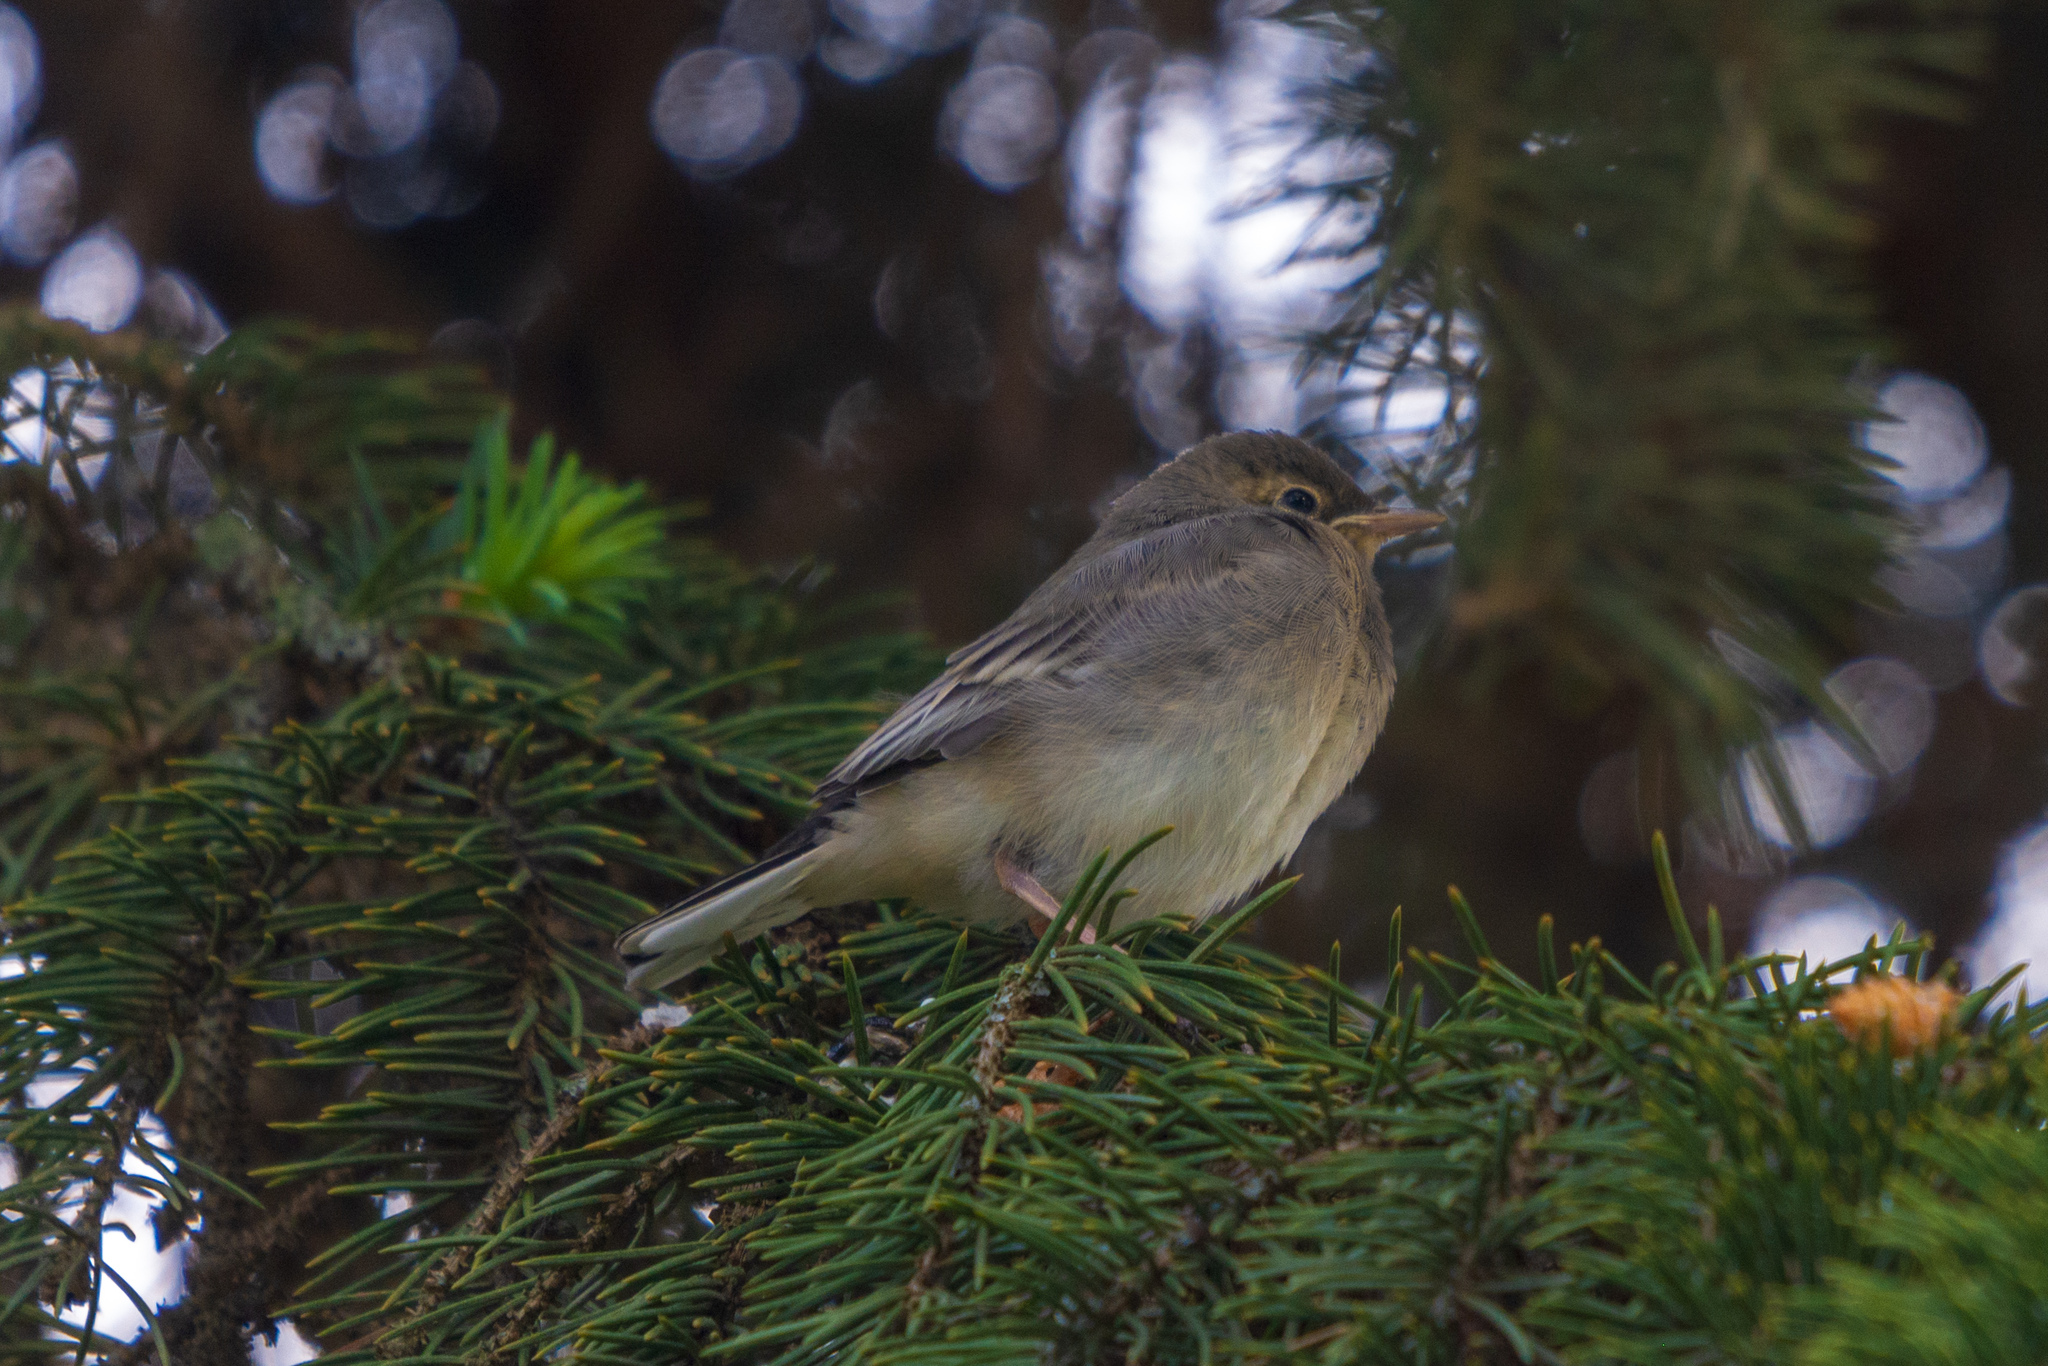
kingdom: Animalia
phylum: Chordata
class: Aves
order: Passeriformes
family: Motacillidae
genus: Motacilla
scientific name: Motacilla alba
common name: White wagtail
